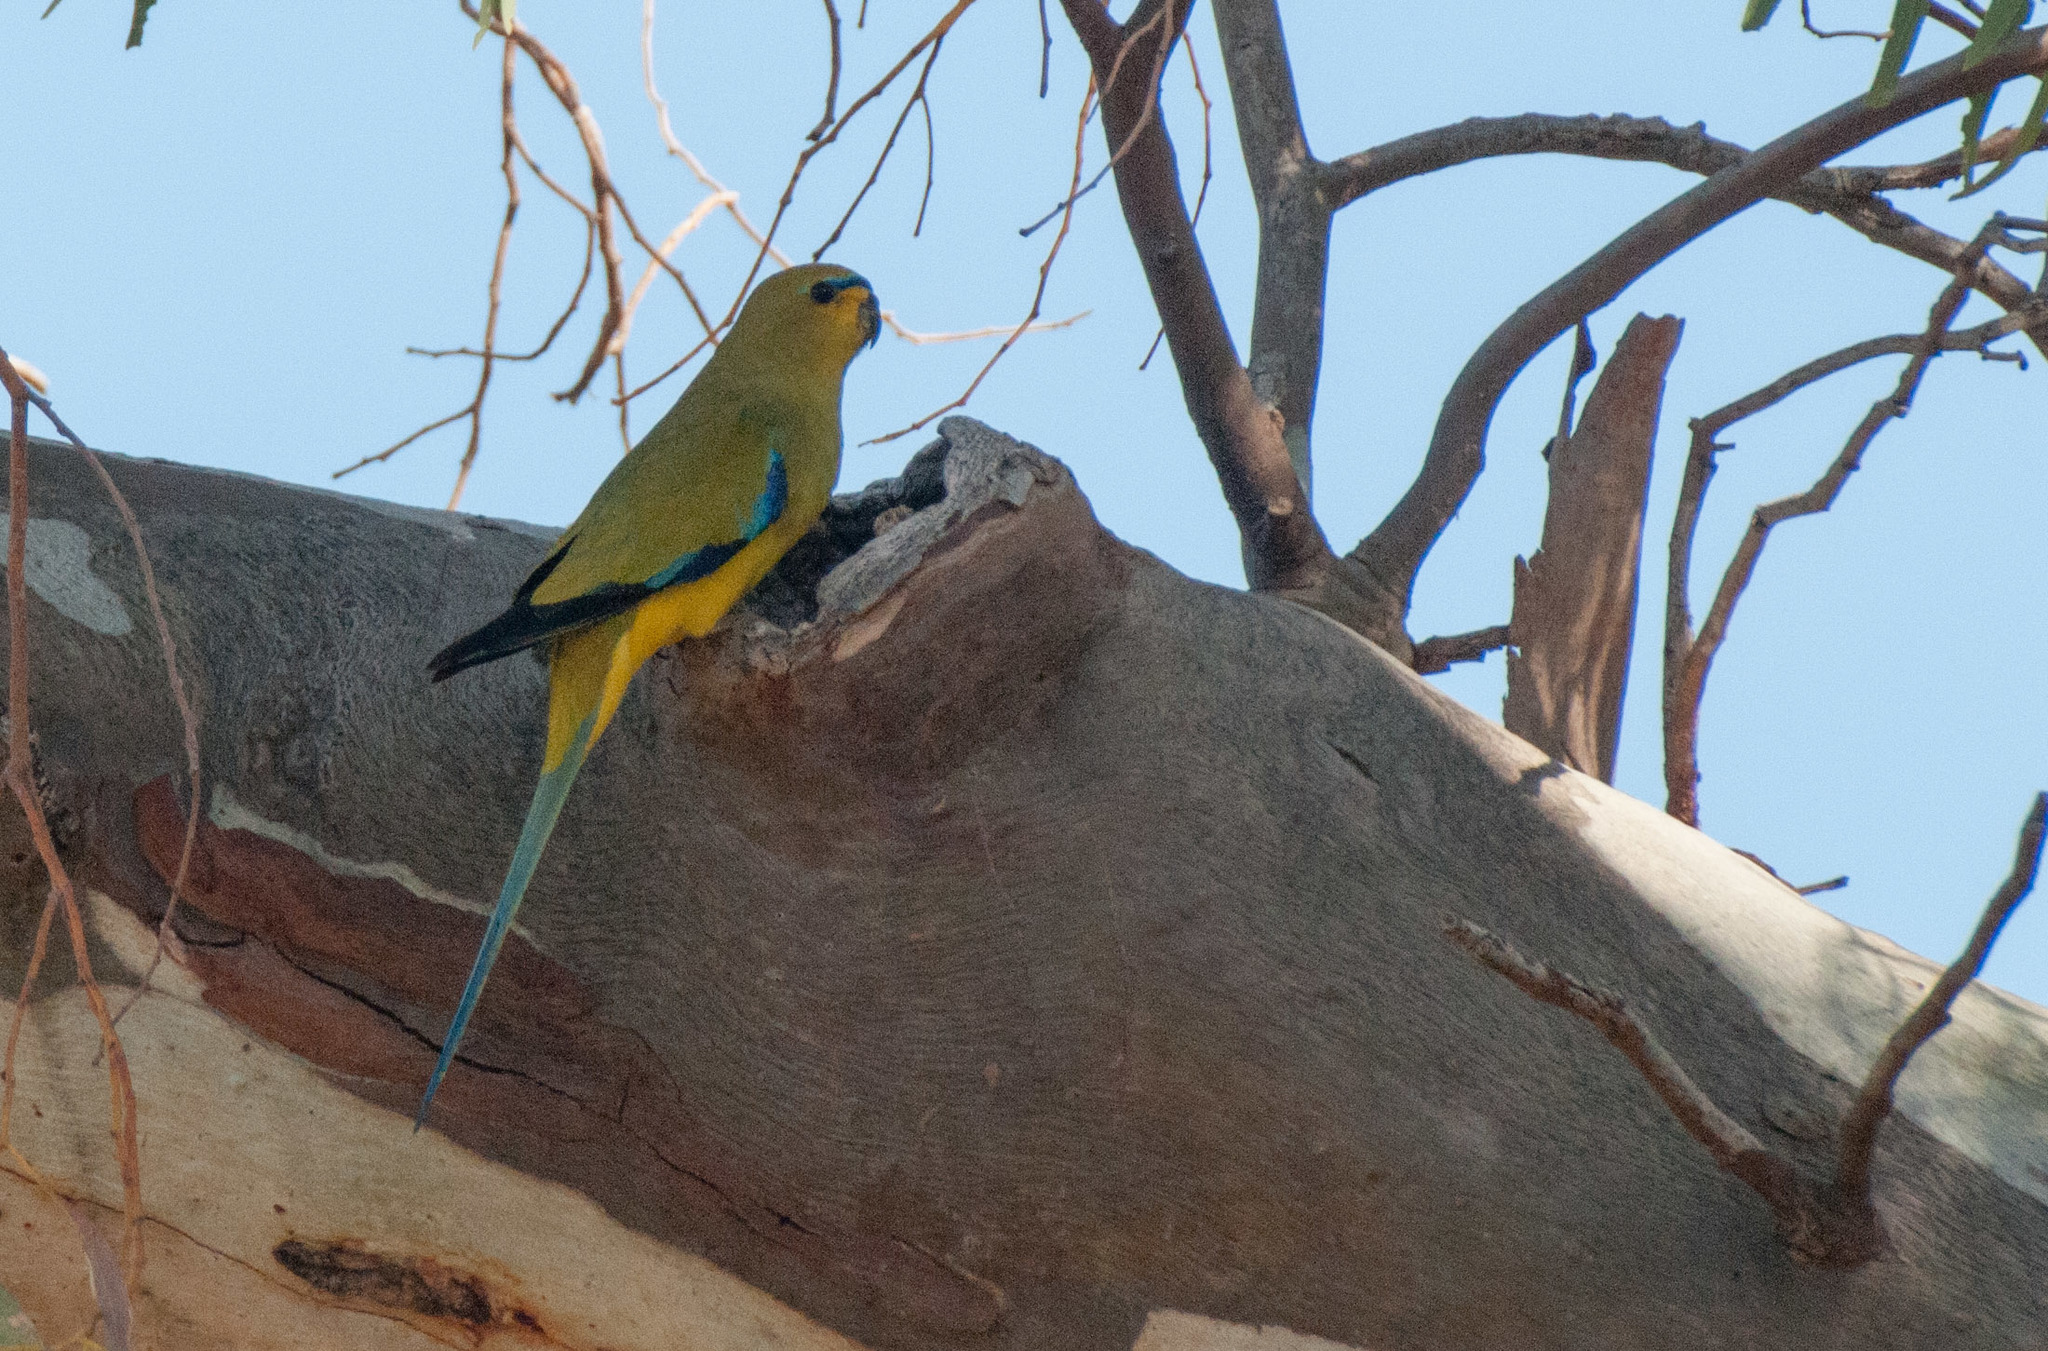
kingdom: Animalia
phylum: Chordata
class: Aves
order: Psittaciformes
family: Psittacidae
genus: Neophema
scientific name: Neophema elegans
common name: Elegant parrot
